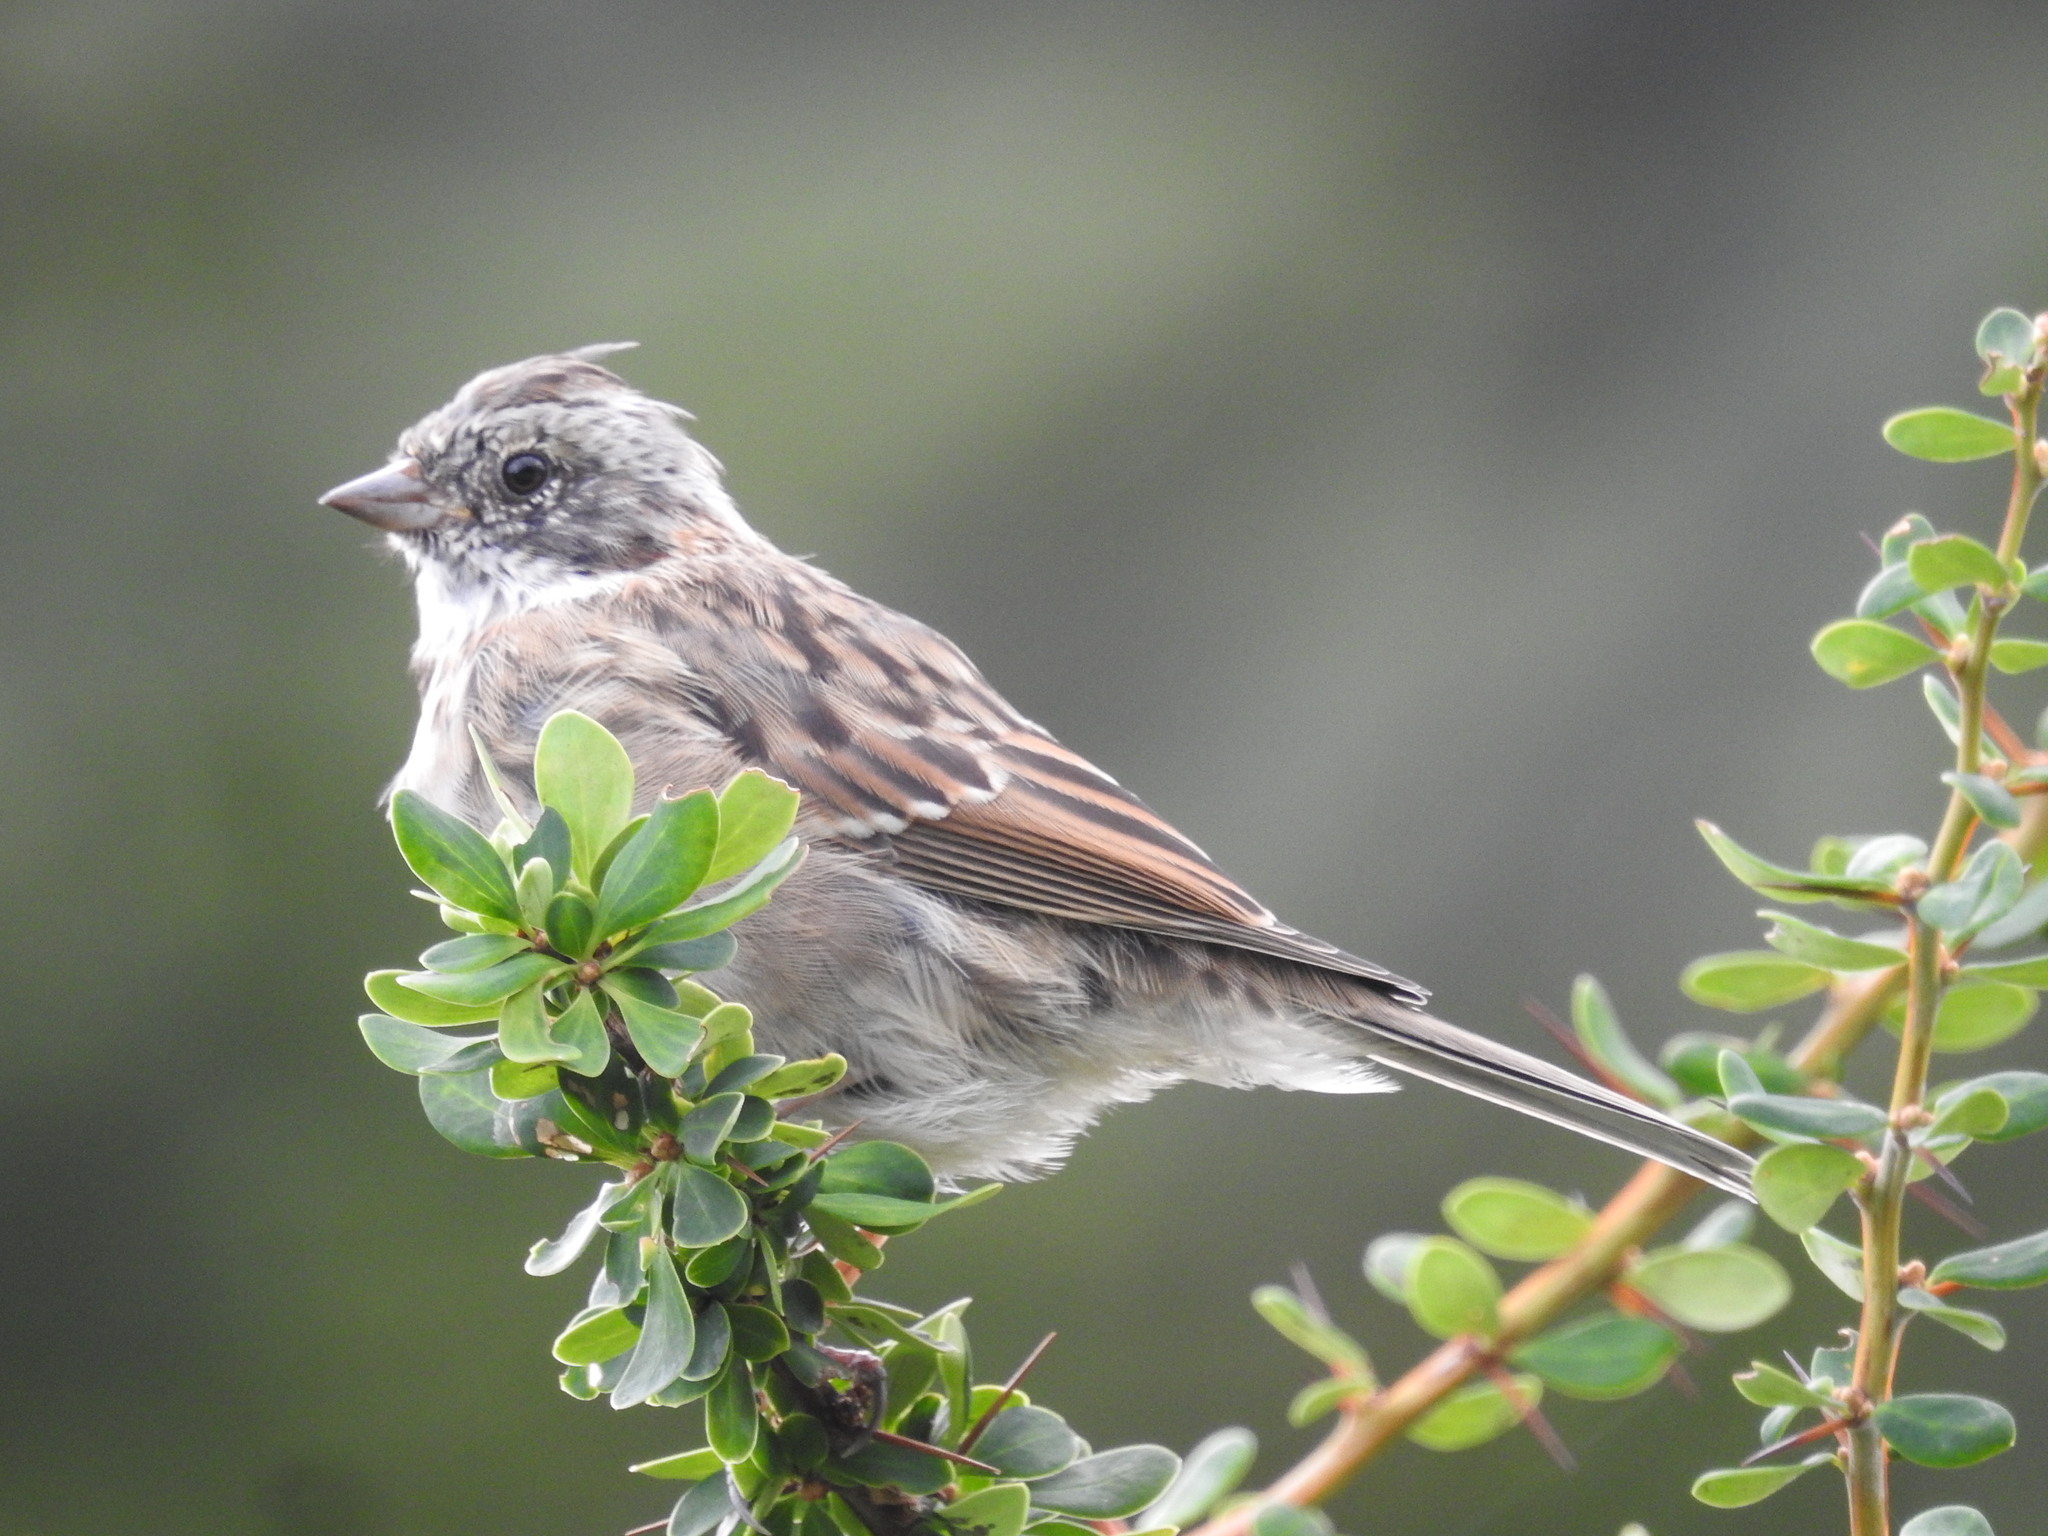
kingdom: Animalia
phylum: Chordata
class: Aves
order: Passeriformes
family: Passerellidae
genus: Zonotrichia
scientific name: Zonotrichia capensis
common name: Rufous-collared sparrow
